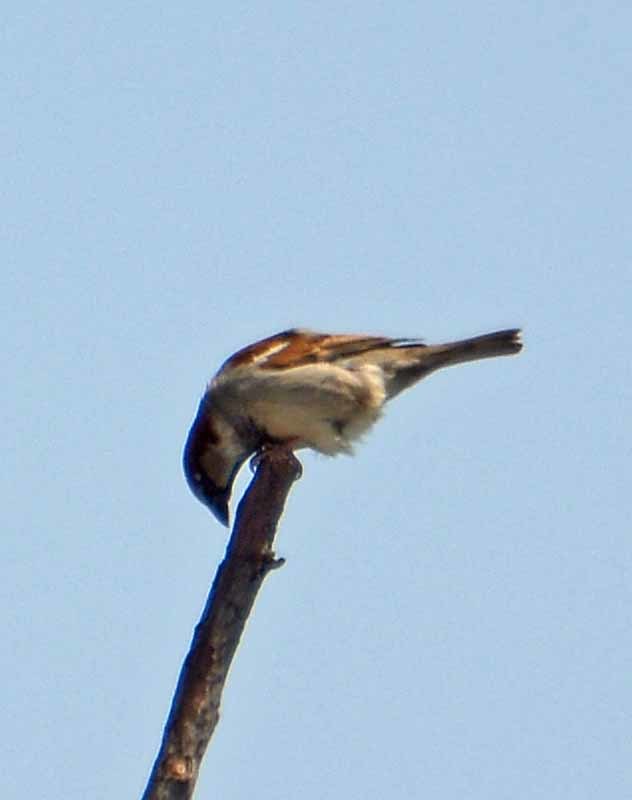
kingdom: Animalia
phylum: Chordata
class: Aves
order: Passeriformes
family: Passeridae
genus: Passer
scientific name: Passer domesticus
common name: House sparrow
